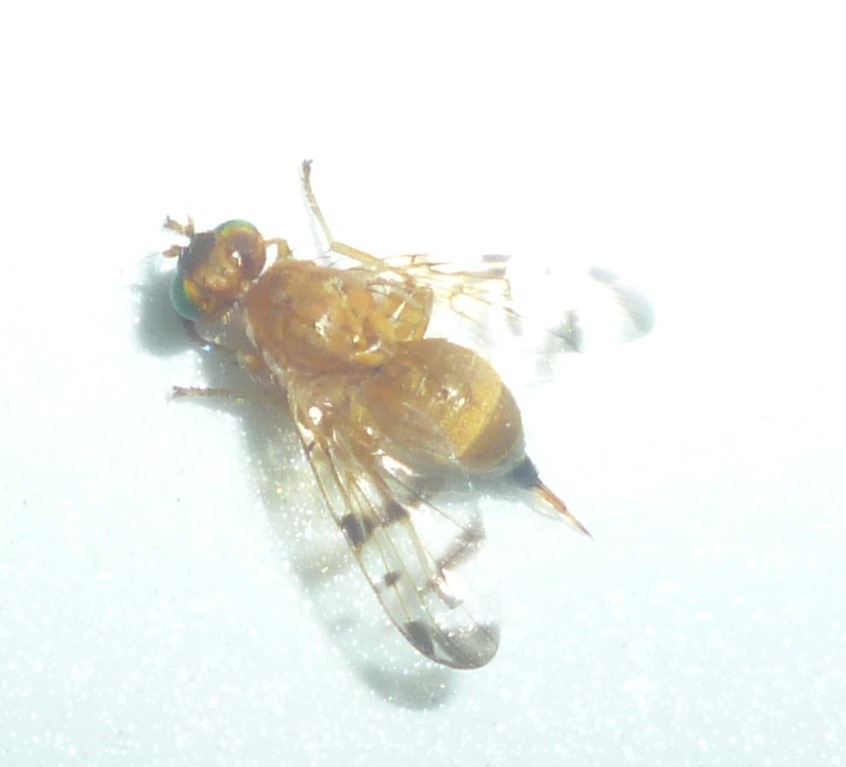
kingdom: Animalia
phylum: Arthropoda
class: Insecta
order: Diptera
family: Tephritidae
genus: Rhagoletis
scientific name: Rhagoletis meigenii
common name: Fruit fly
